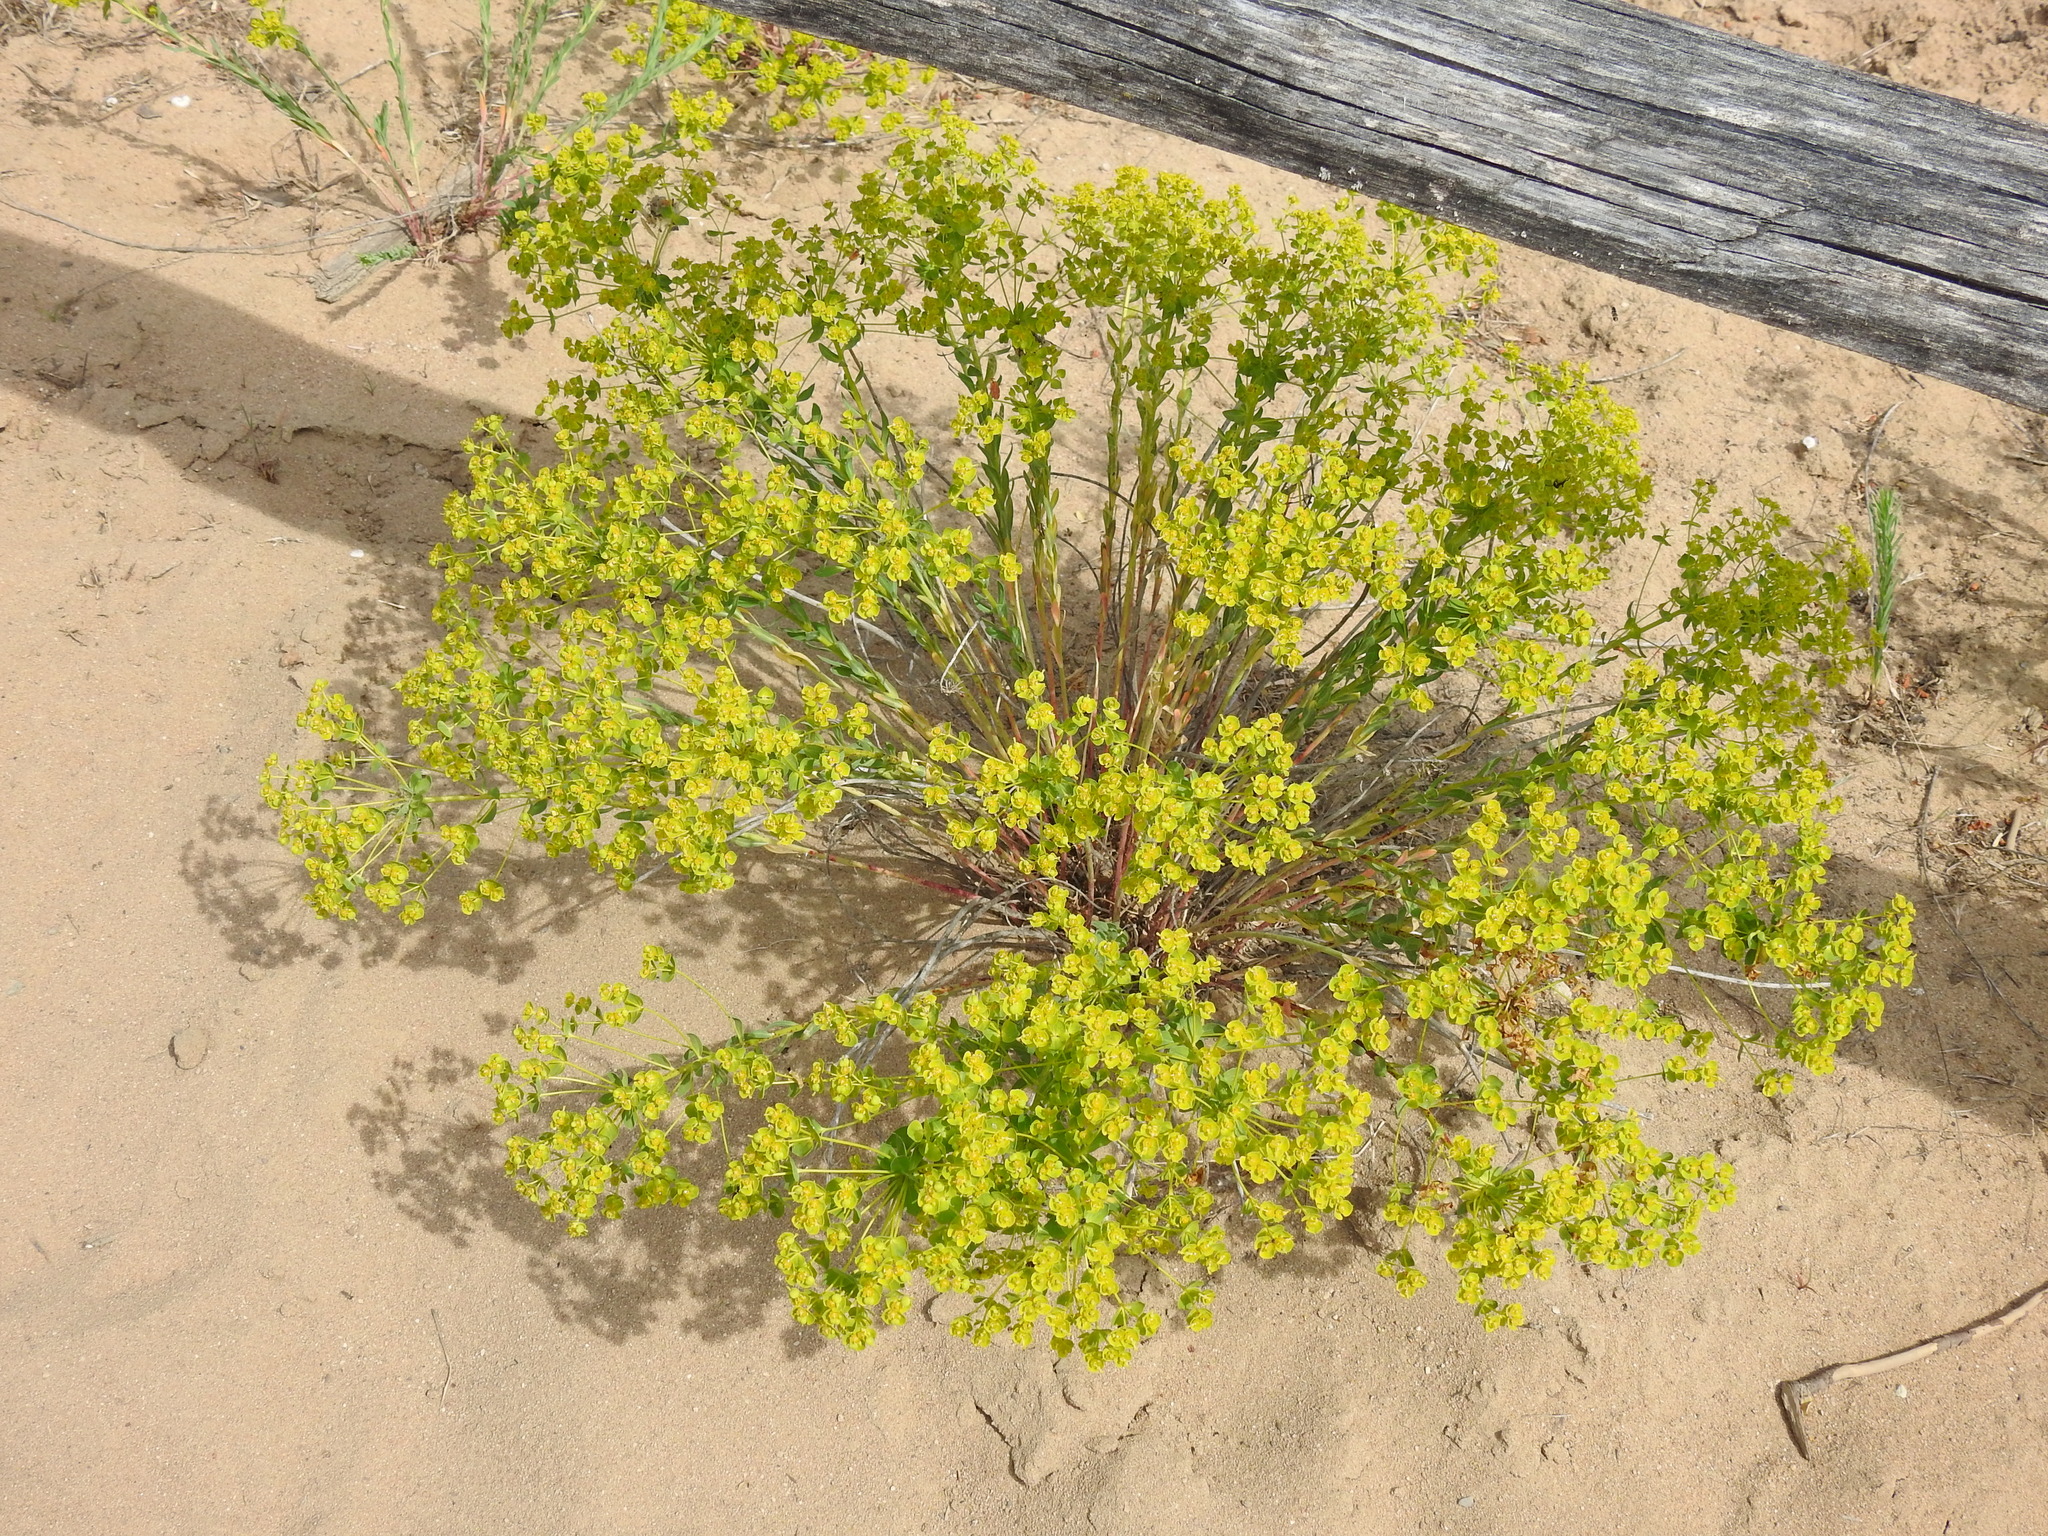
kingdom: Plantae
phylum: Tracheophyta
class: Magnoliopsida
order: Malpighiales
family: Euphorbiaceae
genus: Euphorbia
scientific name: Euphorbia seguieriana
